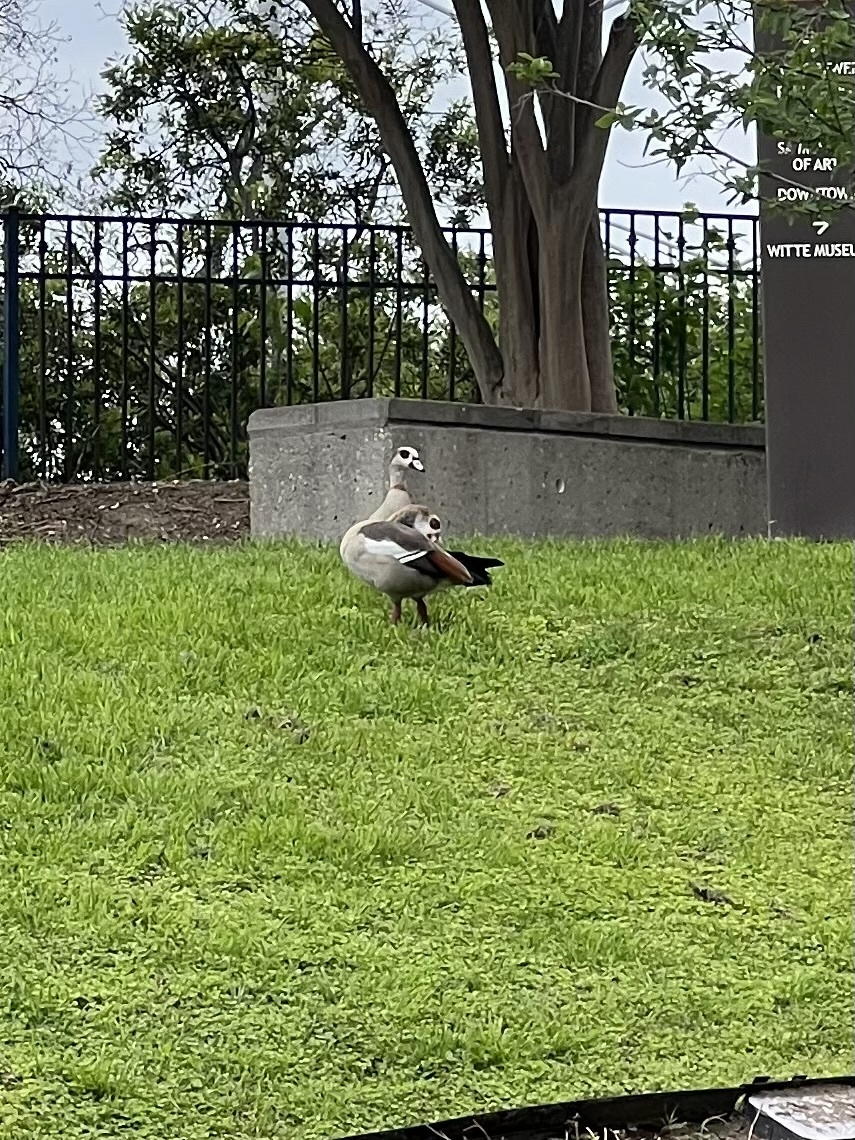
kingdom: Animalia
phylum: Chordata
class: Aves
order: Anseriformes
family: Anatidae
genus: Alopochen
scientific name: Alopochen aegyptiaca
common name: Egyptian goose
